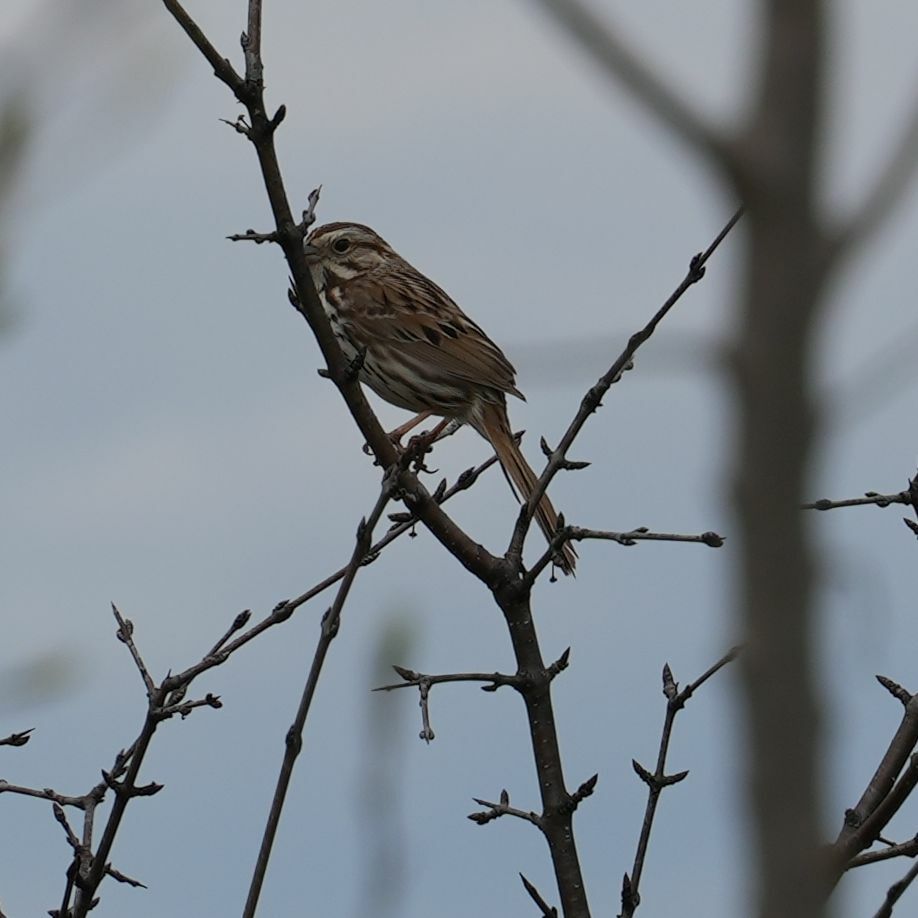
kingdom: Animalia
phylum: Chordata
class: Aves
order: Passeriformes
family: Passerellidae
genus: Melospiza
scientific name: Melospiza melodia
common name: Song sparrow
